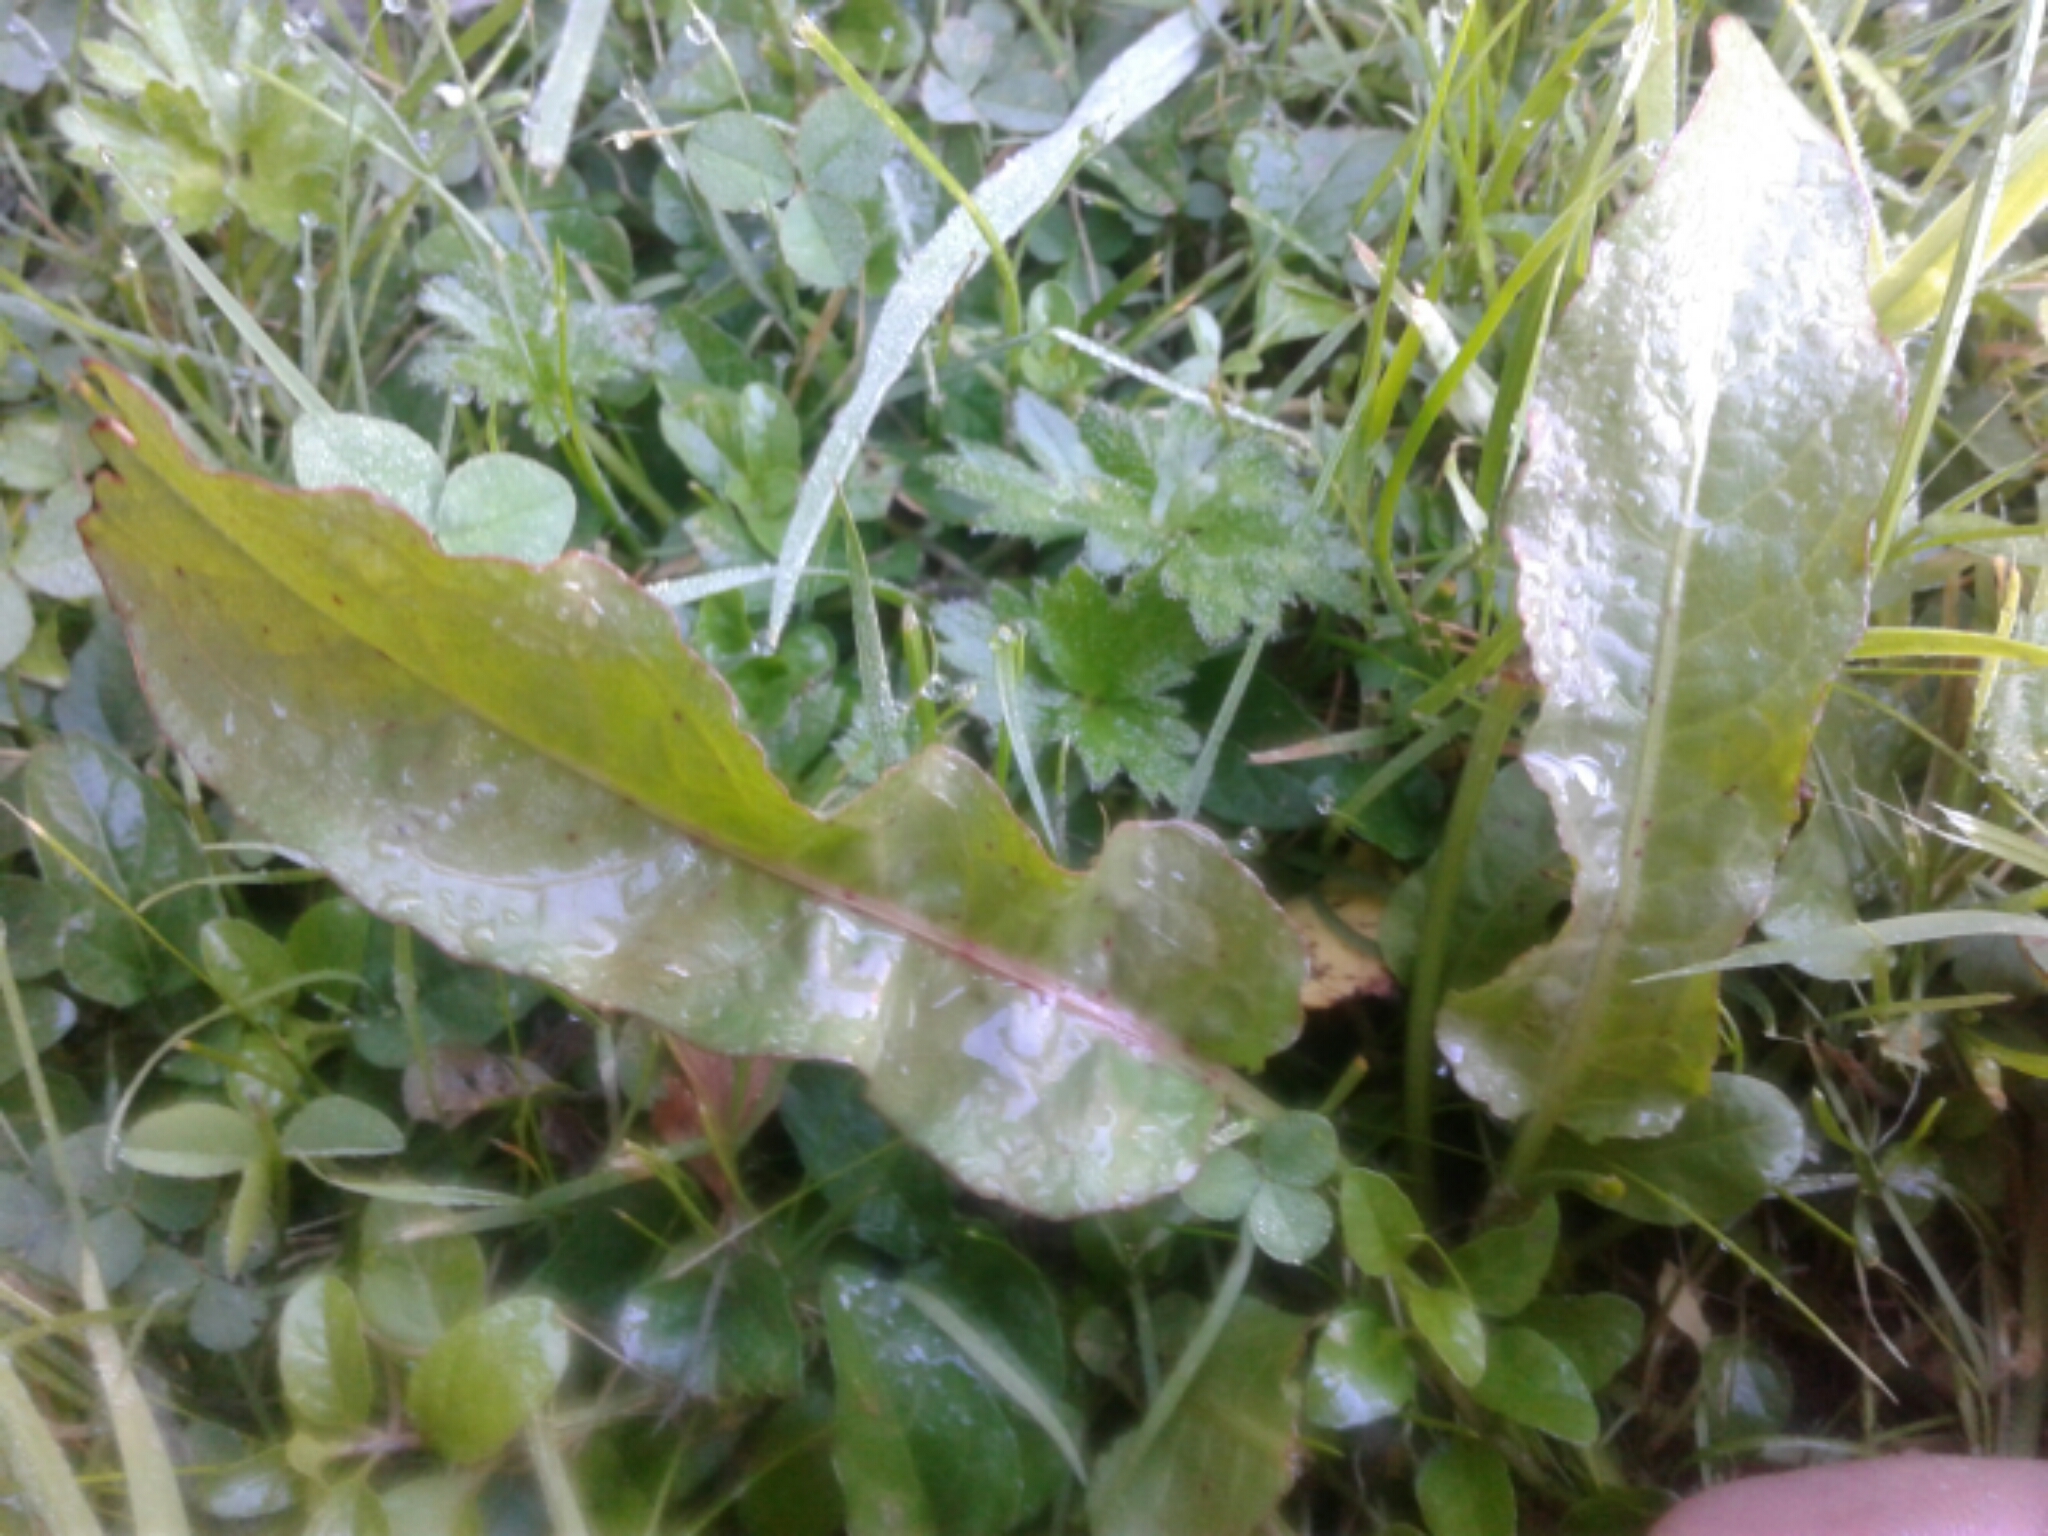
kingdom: Plantae
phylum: Tracheophyta
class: Magnoliopsida
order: Caryophyllales
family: Polygonaceae
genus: Rumex
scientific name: Rumex obtusifolius
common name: Bitter dock
